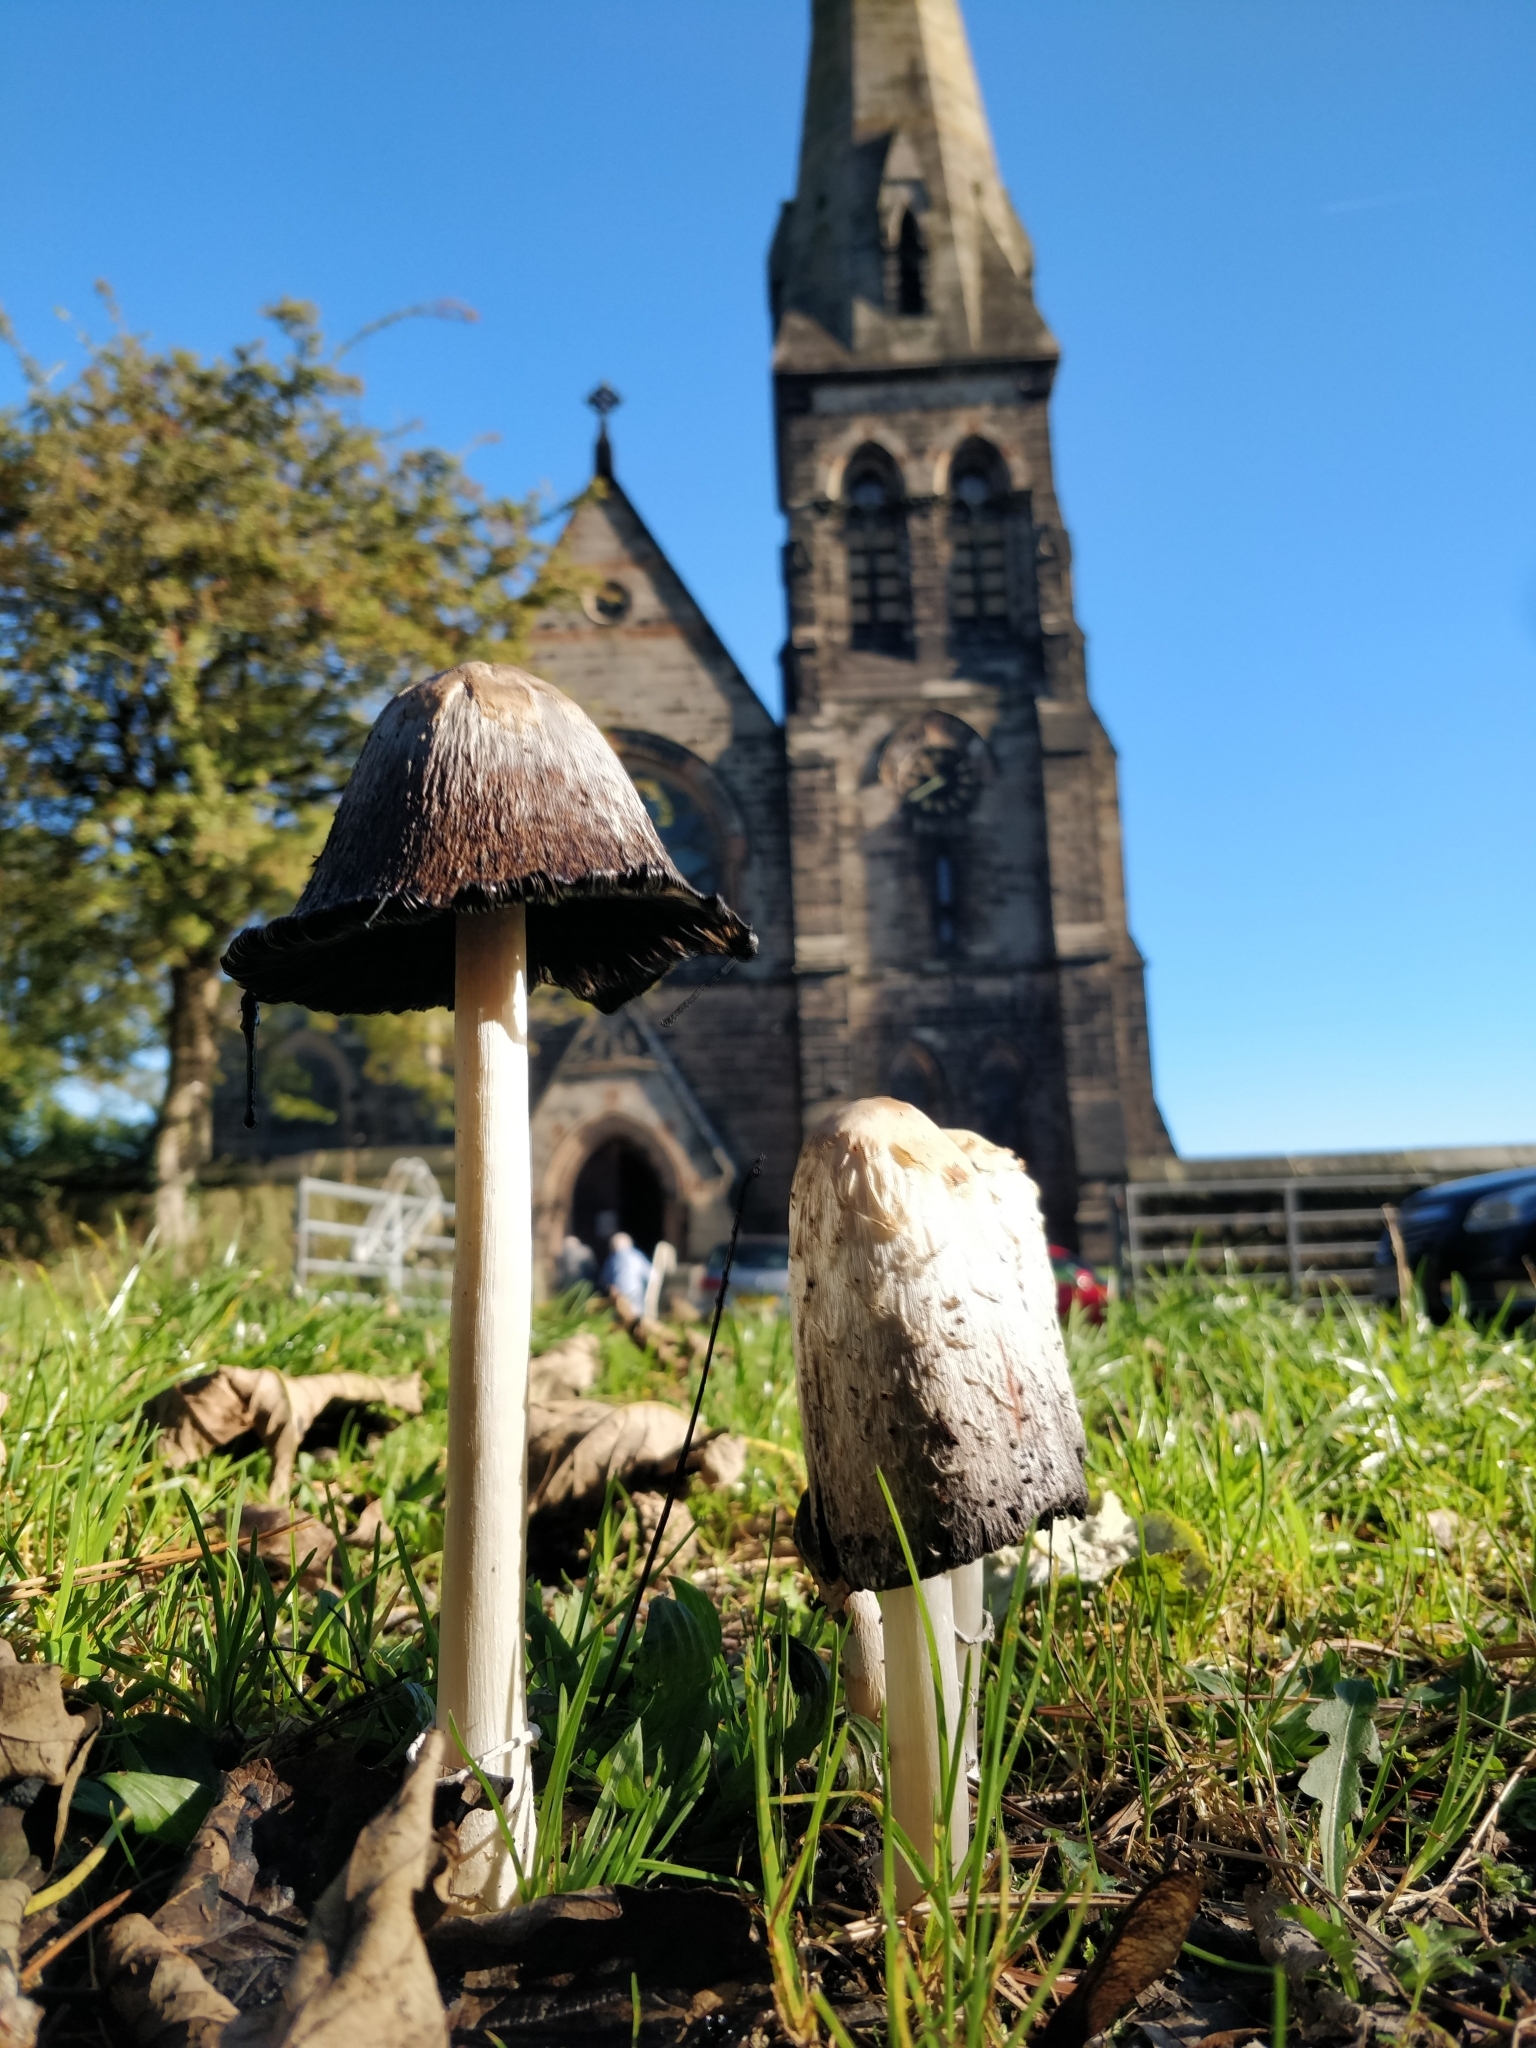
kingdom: Fungi
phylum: Basidiomycota
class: Agaricomycetes
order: Agaricales
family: Agaricaceae
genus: Coprinus
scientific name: Coprinus comatus
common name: Lawyer's wig
